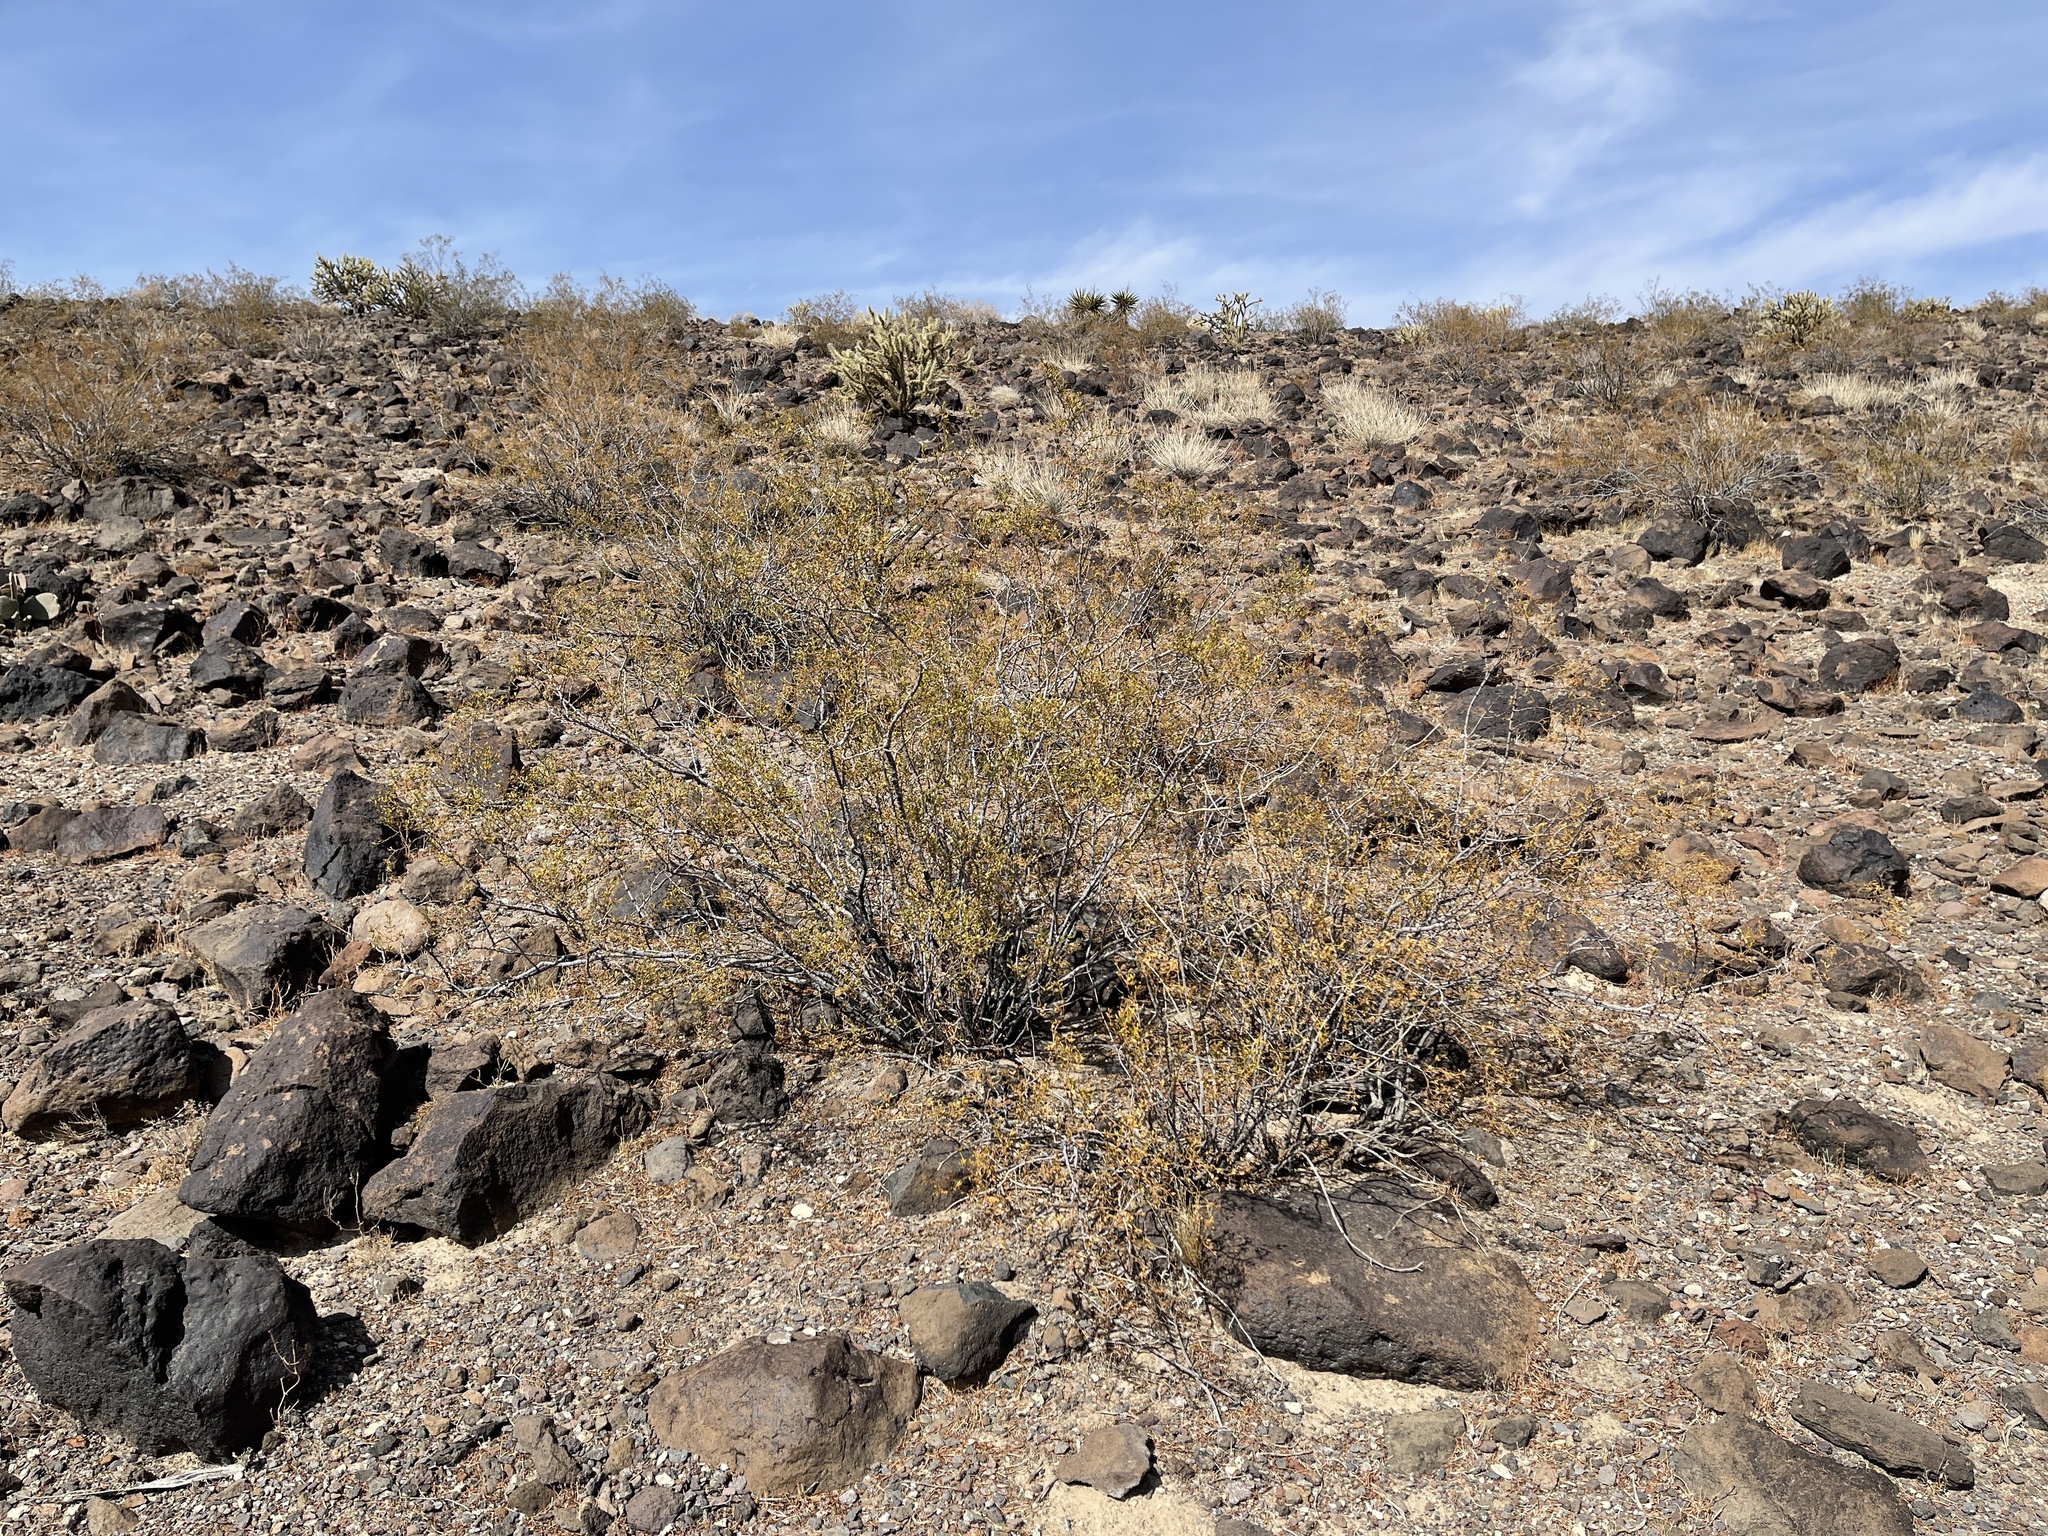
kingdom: Plantae
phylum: Tracheophyta
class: Magnoliopsida
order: Zygophyllales
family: Zygophyllaceae
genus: Larrea
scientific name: Larrea tridentata
